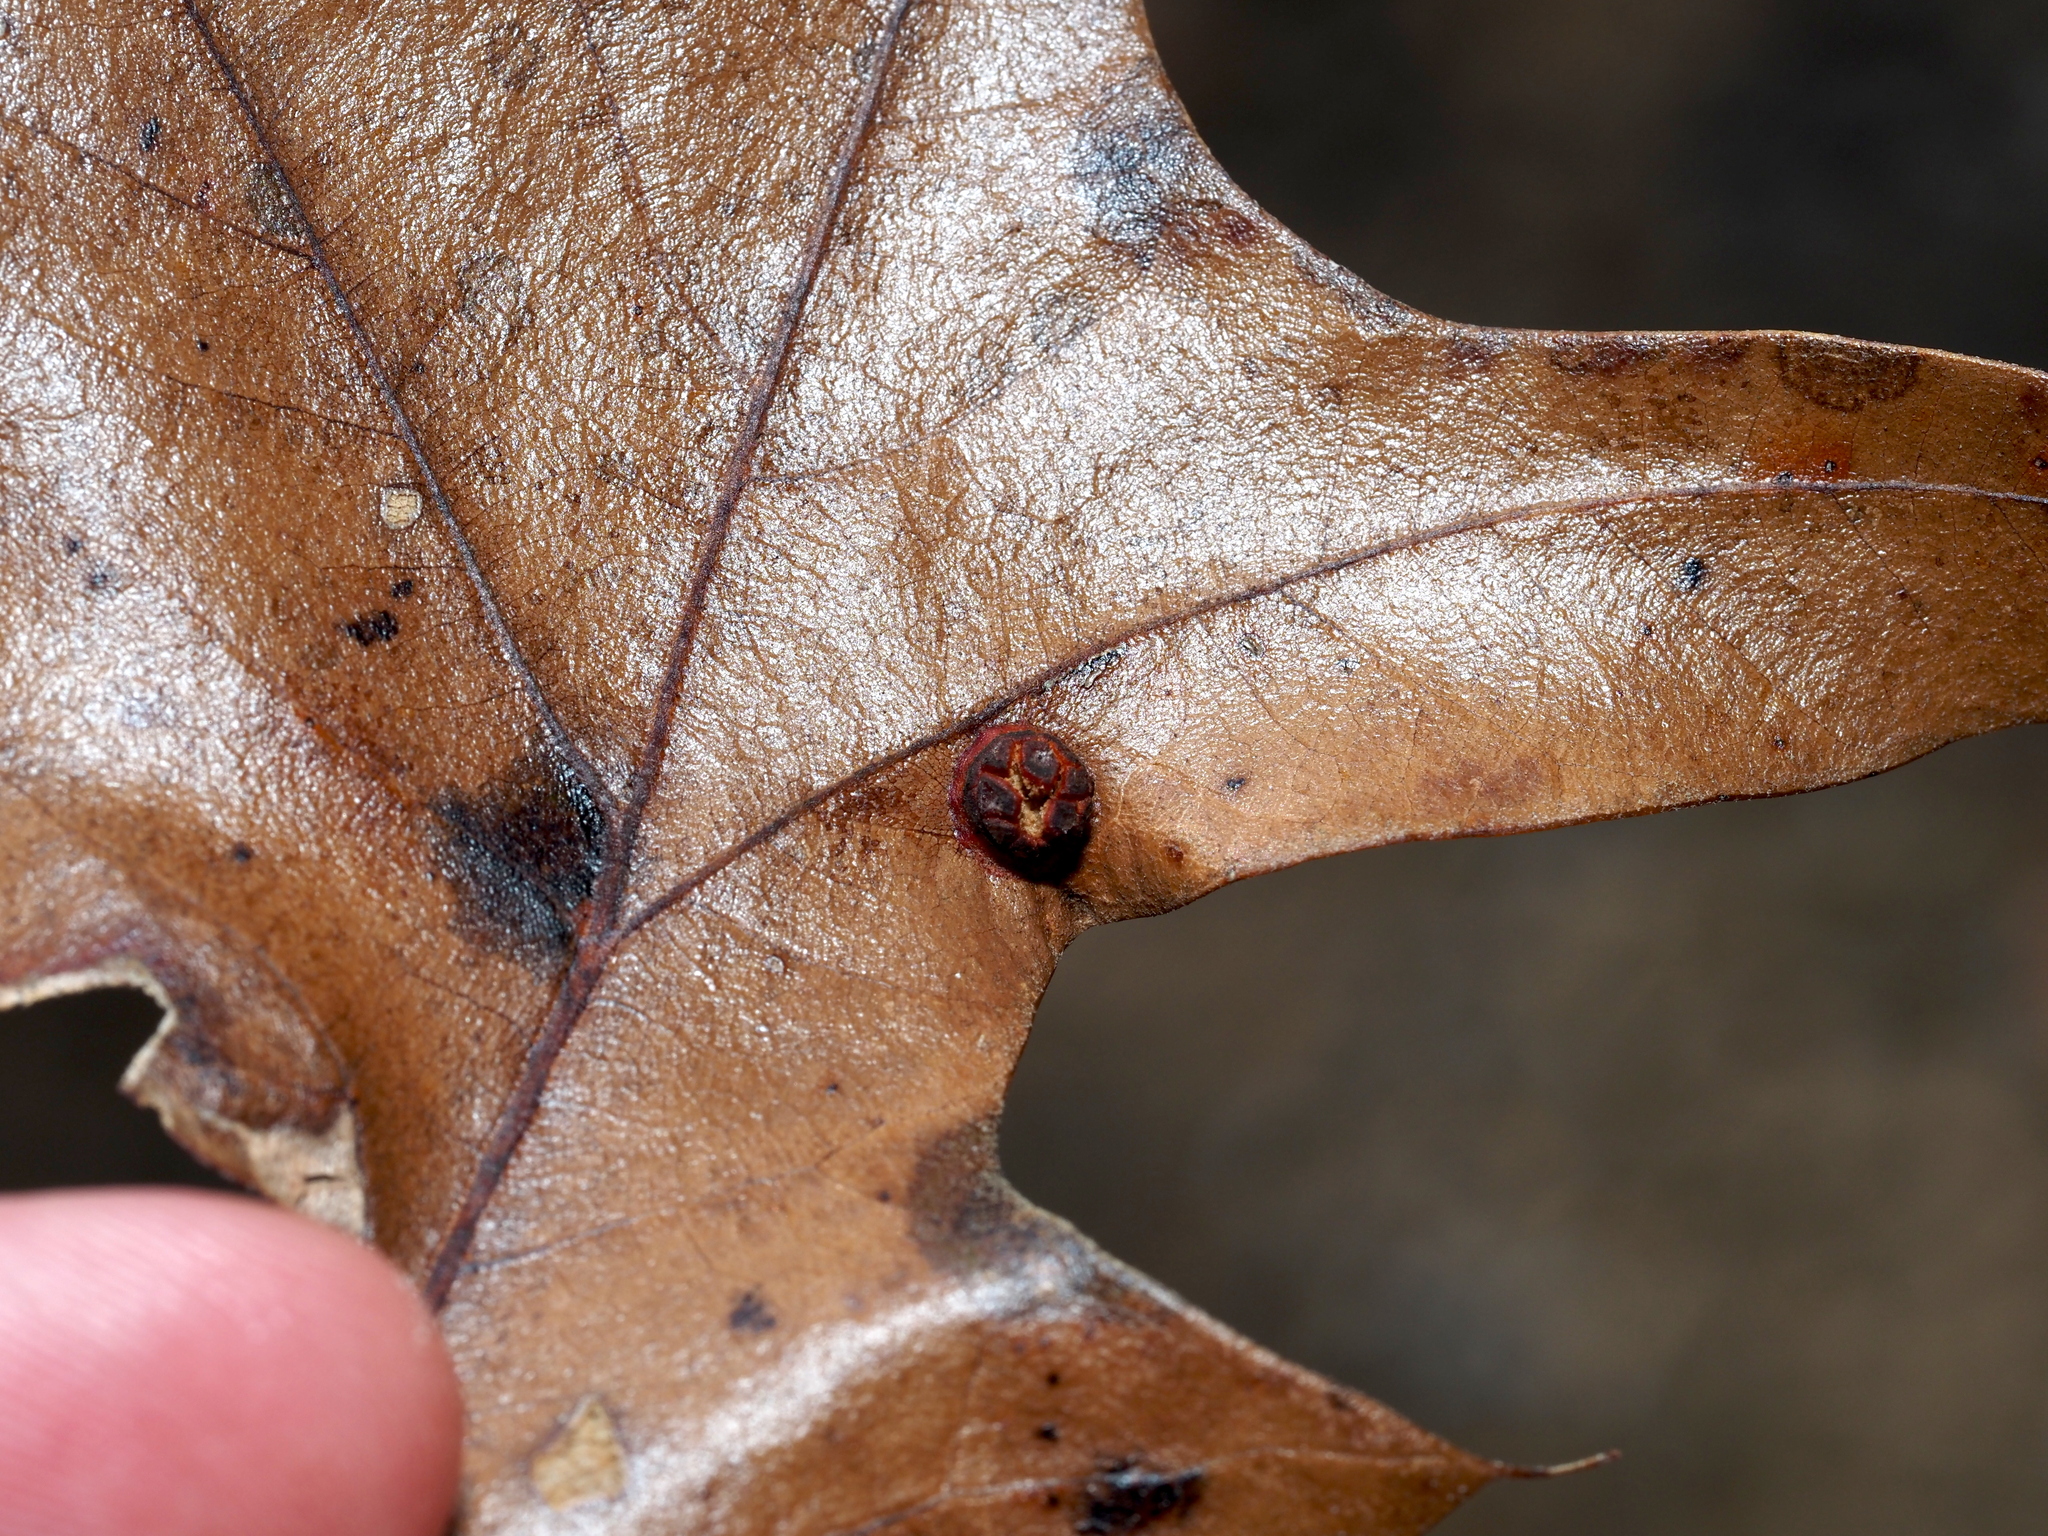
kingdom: Animalia
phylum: Arthropoda
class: Insecta
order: Diptera
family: Cecidomyiidae
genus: Polystepha
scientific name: Polystepha symmetrica
